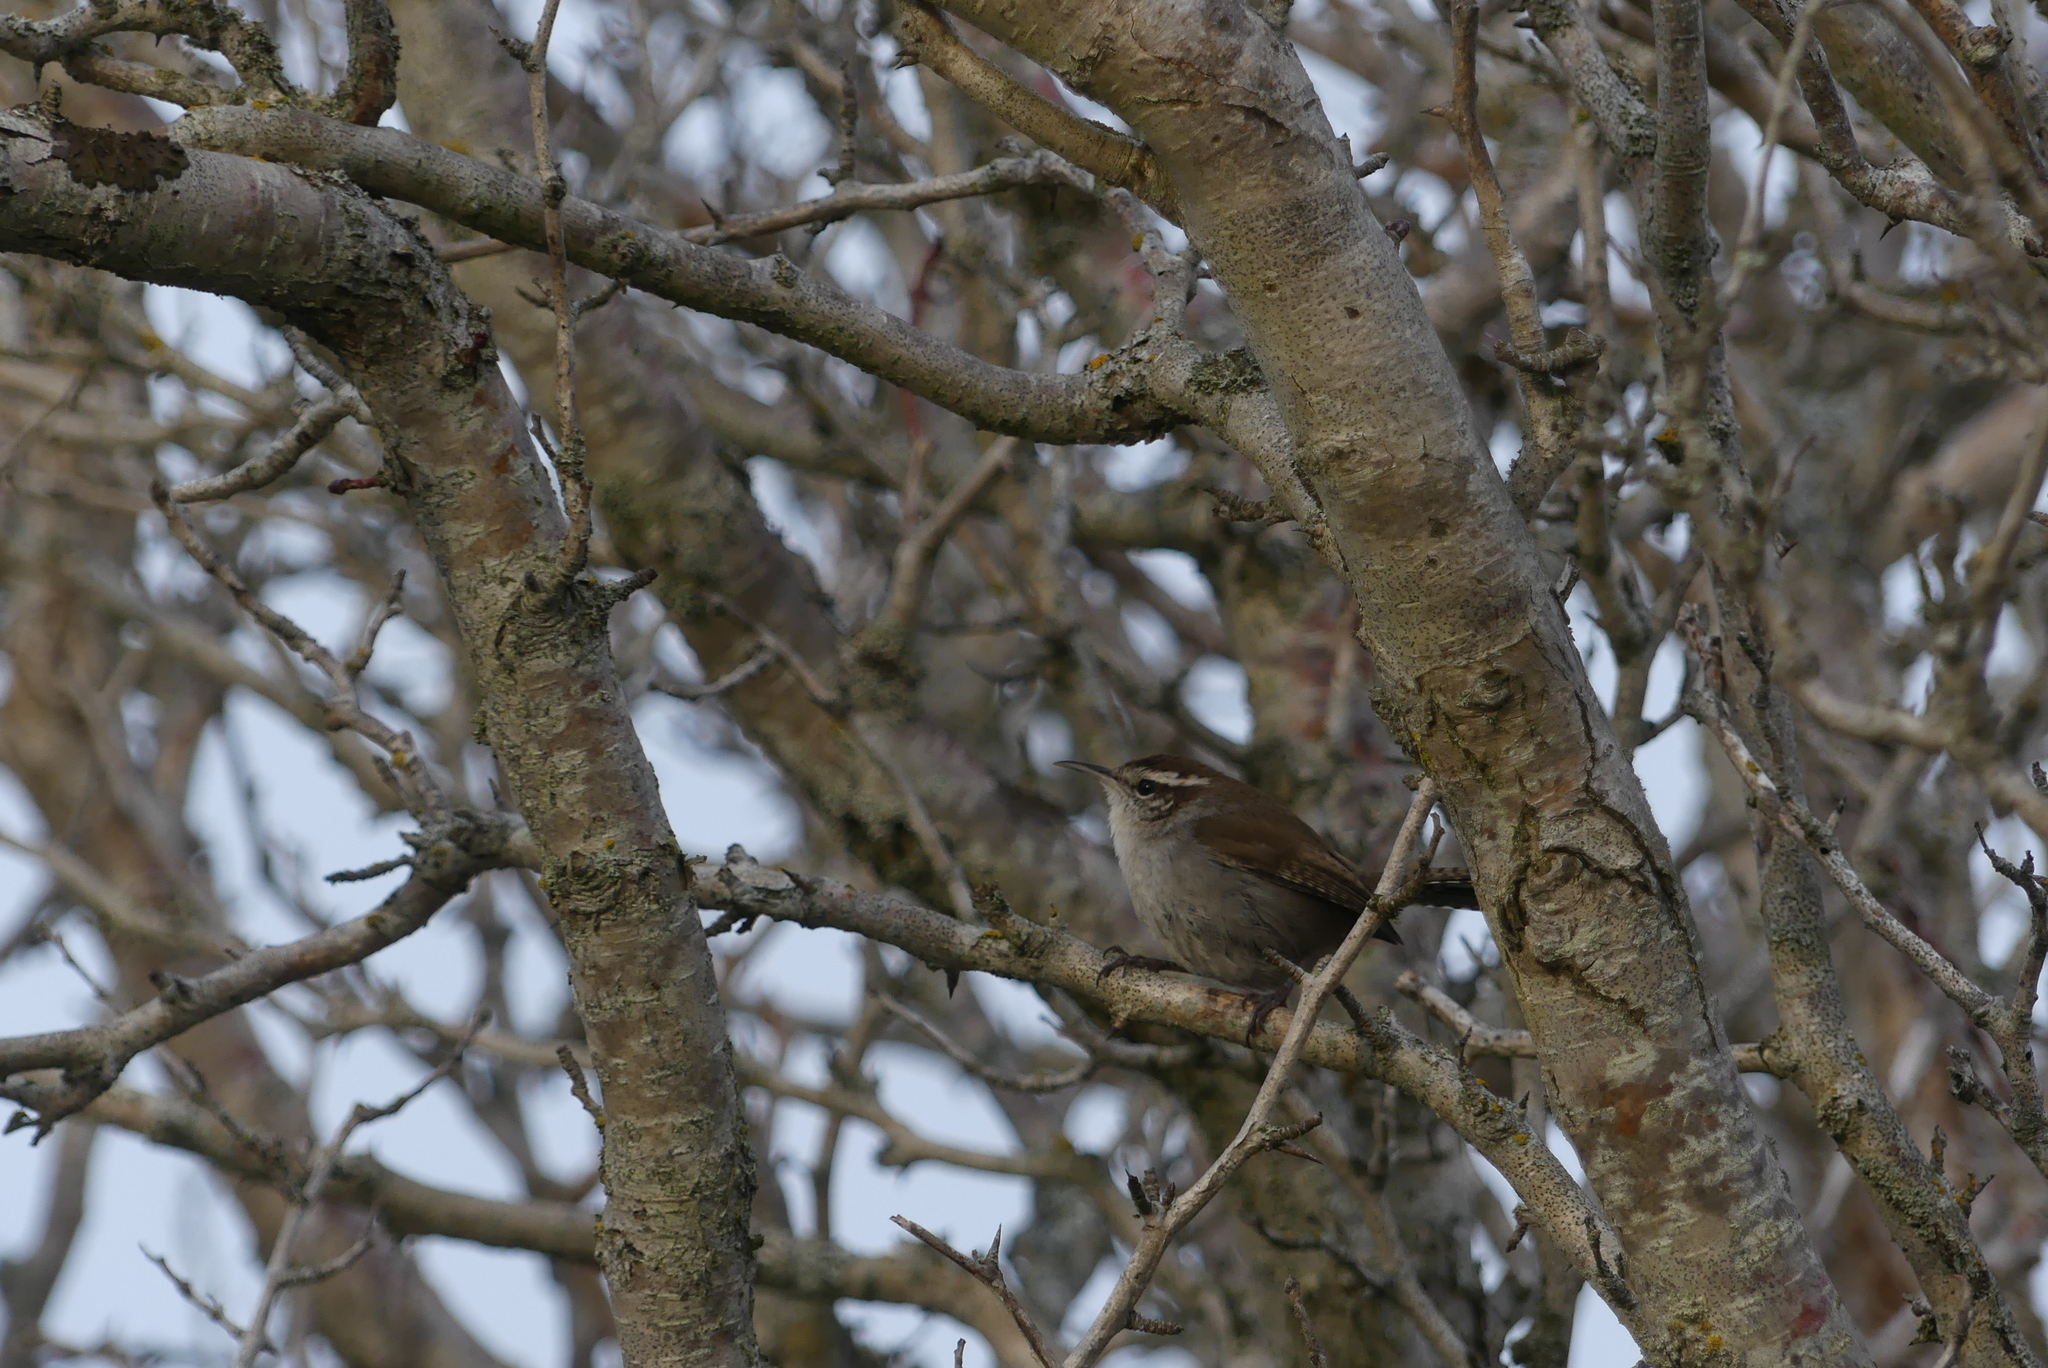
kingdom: Animalia
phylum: Chordata
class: Aves
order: Passeriformes
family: Troglodytidae
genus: Thryomanes
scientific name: Thryomanes bewickii
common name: Bewick's wren
